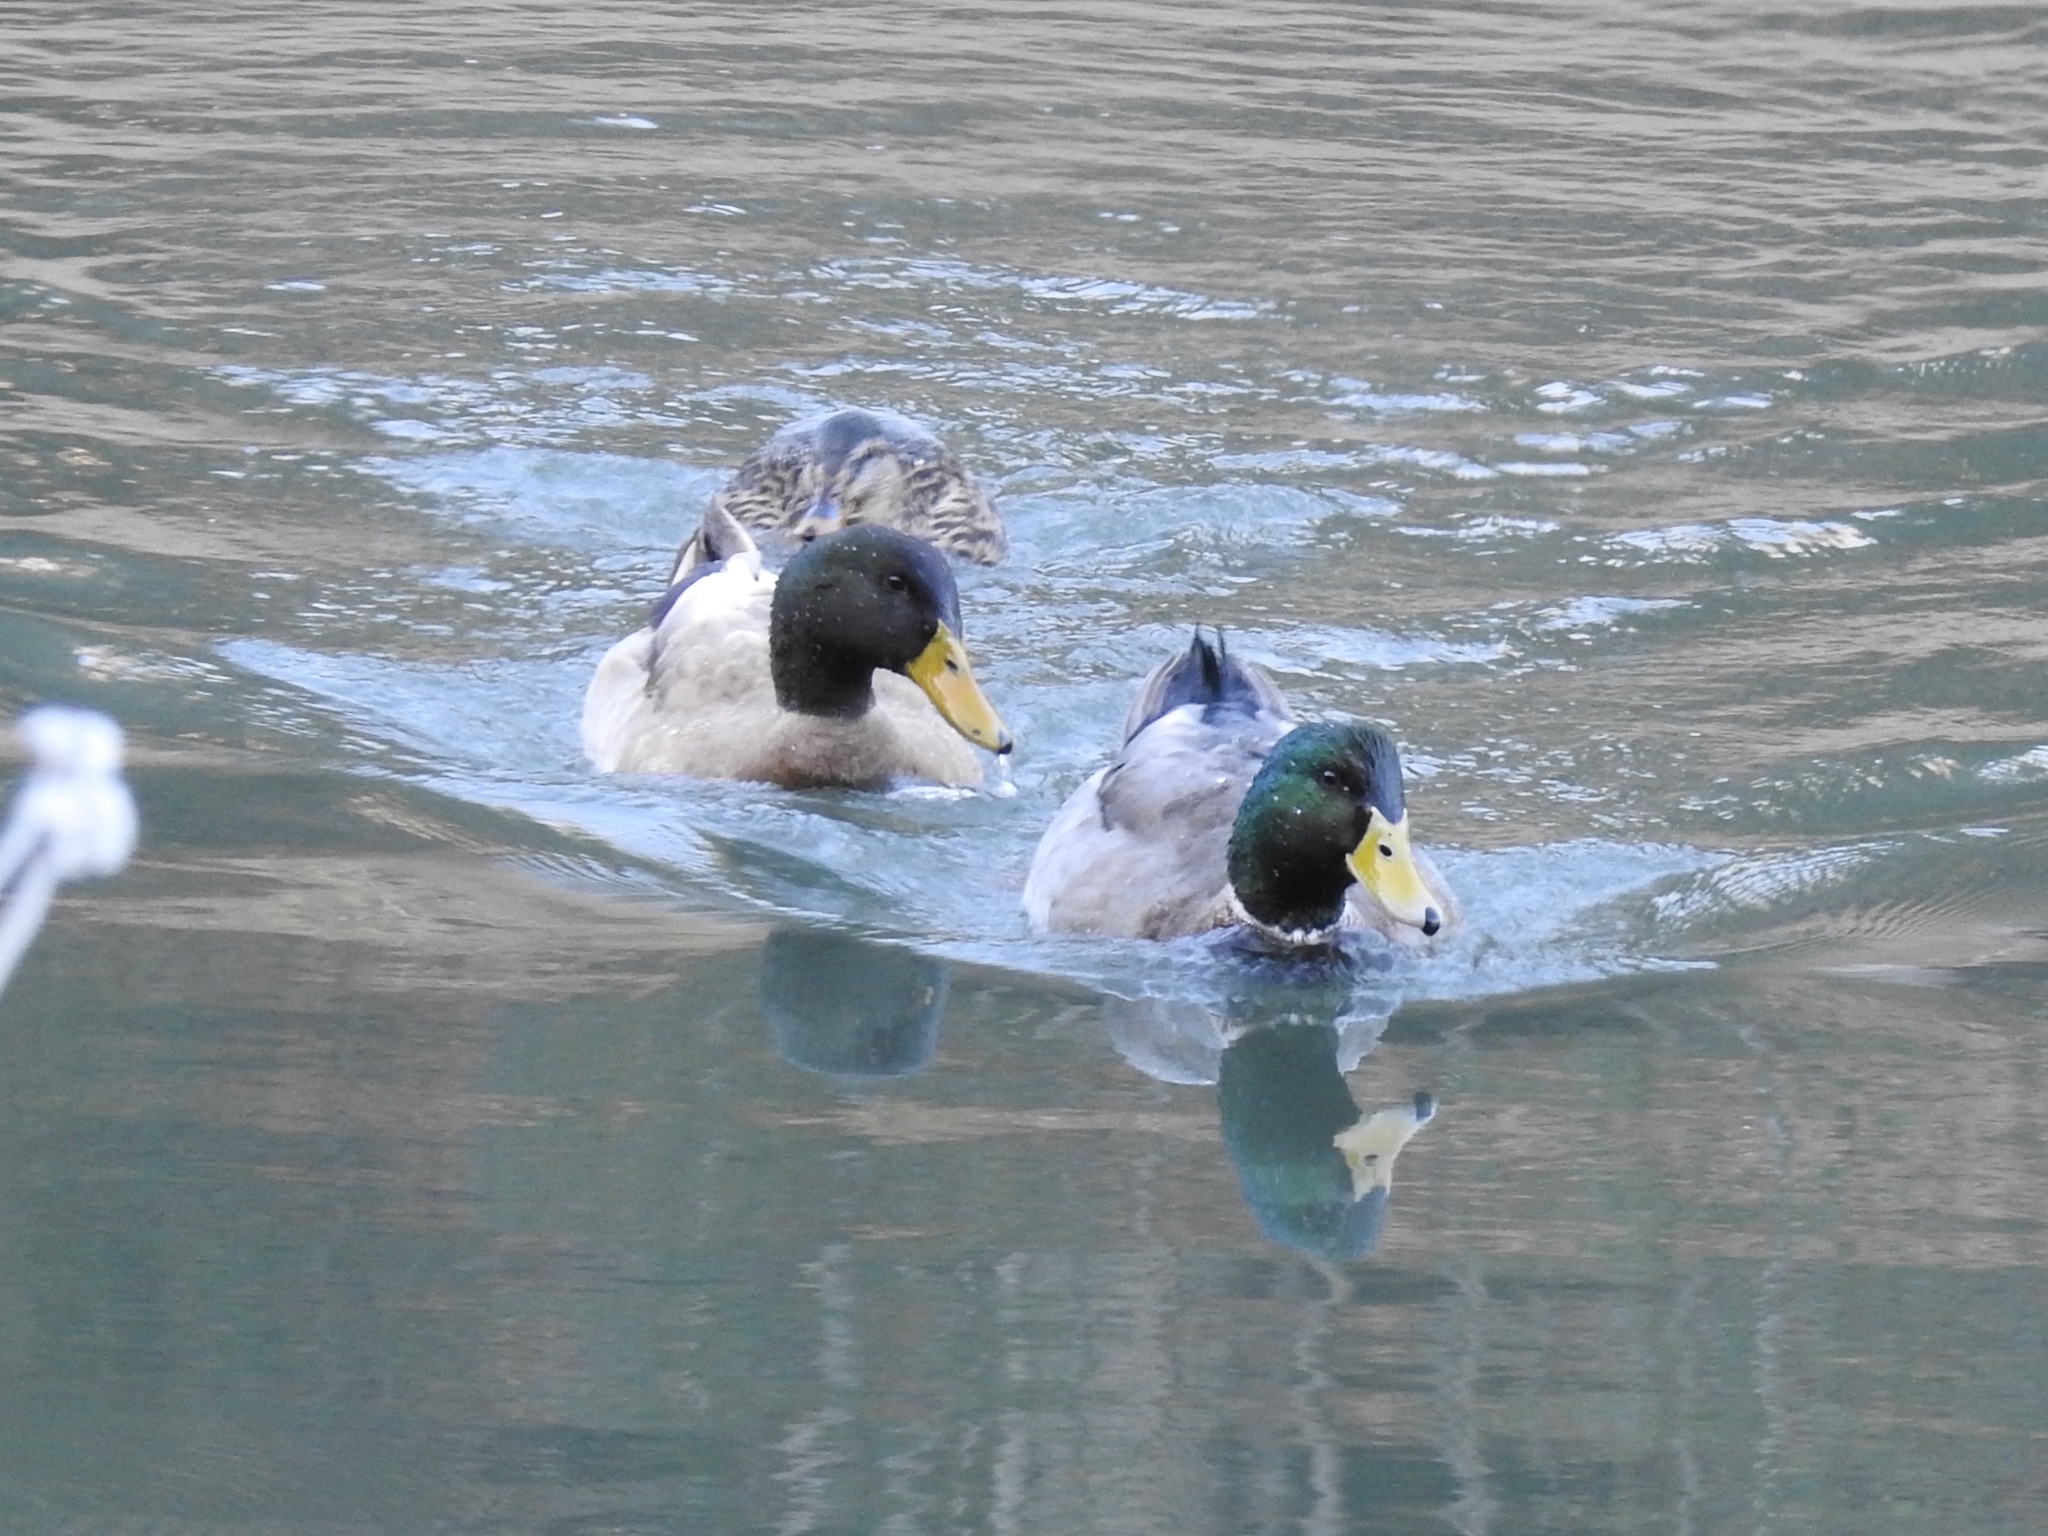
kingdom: Animalia
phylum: Chordata
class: Aves
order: Anseriformes
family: Anatidae
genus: Anas
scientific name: Anas platyrhynchos
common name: Mallard
